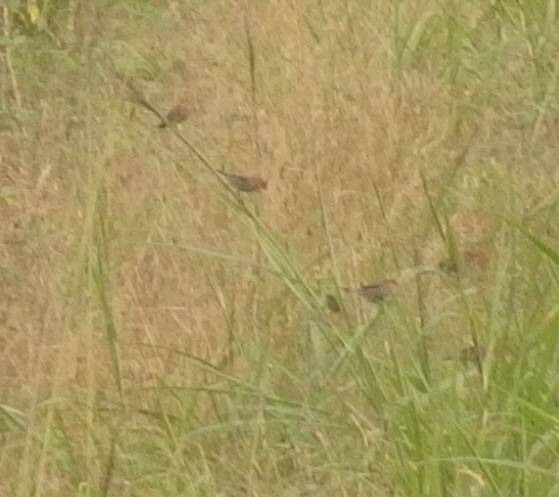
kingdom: Animalia
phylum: Chordata
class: Aves
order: Passeriformes
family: Estrildidae
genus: Estrilda
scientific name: Estrilda melpoda
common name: Orange-cheeked waxbill
